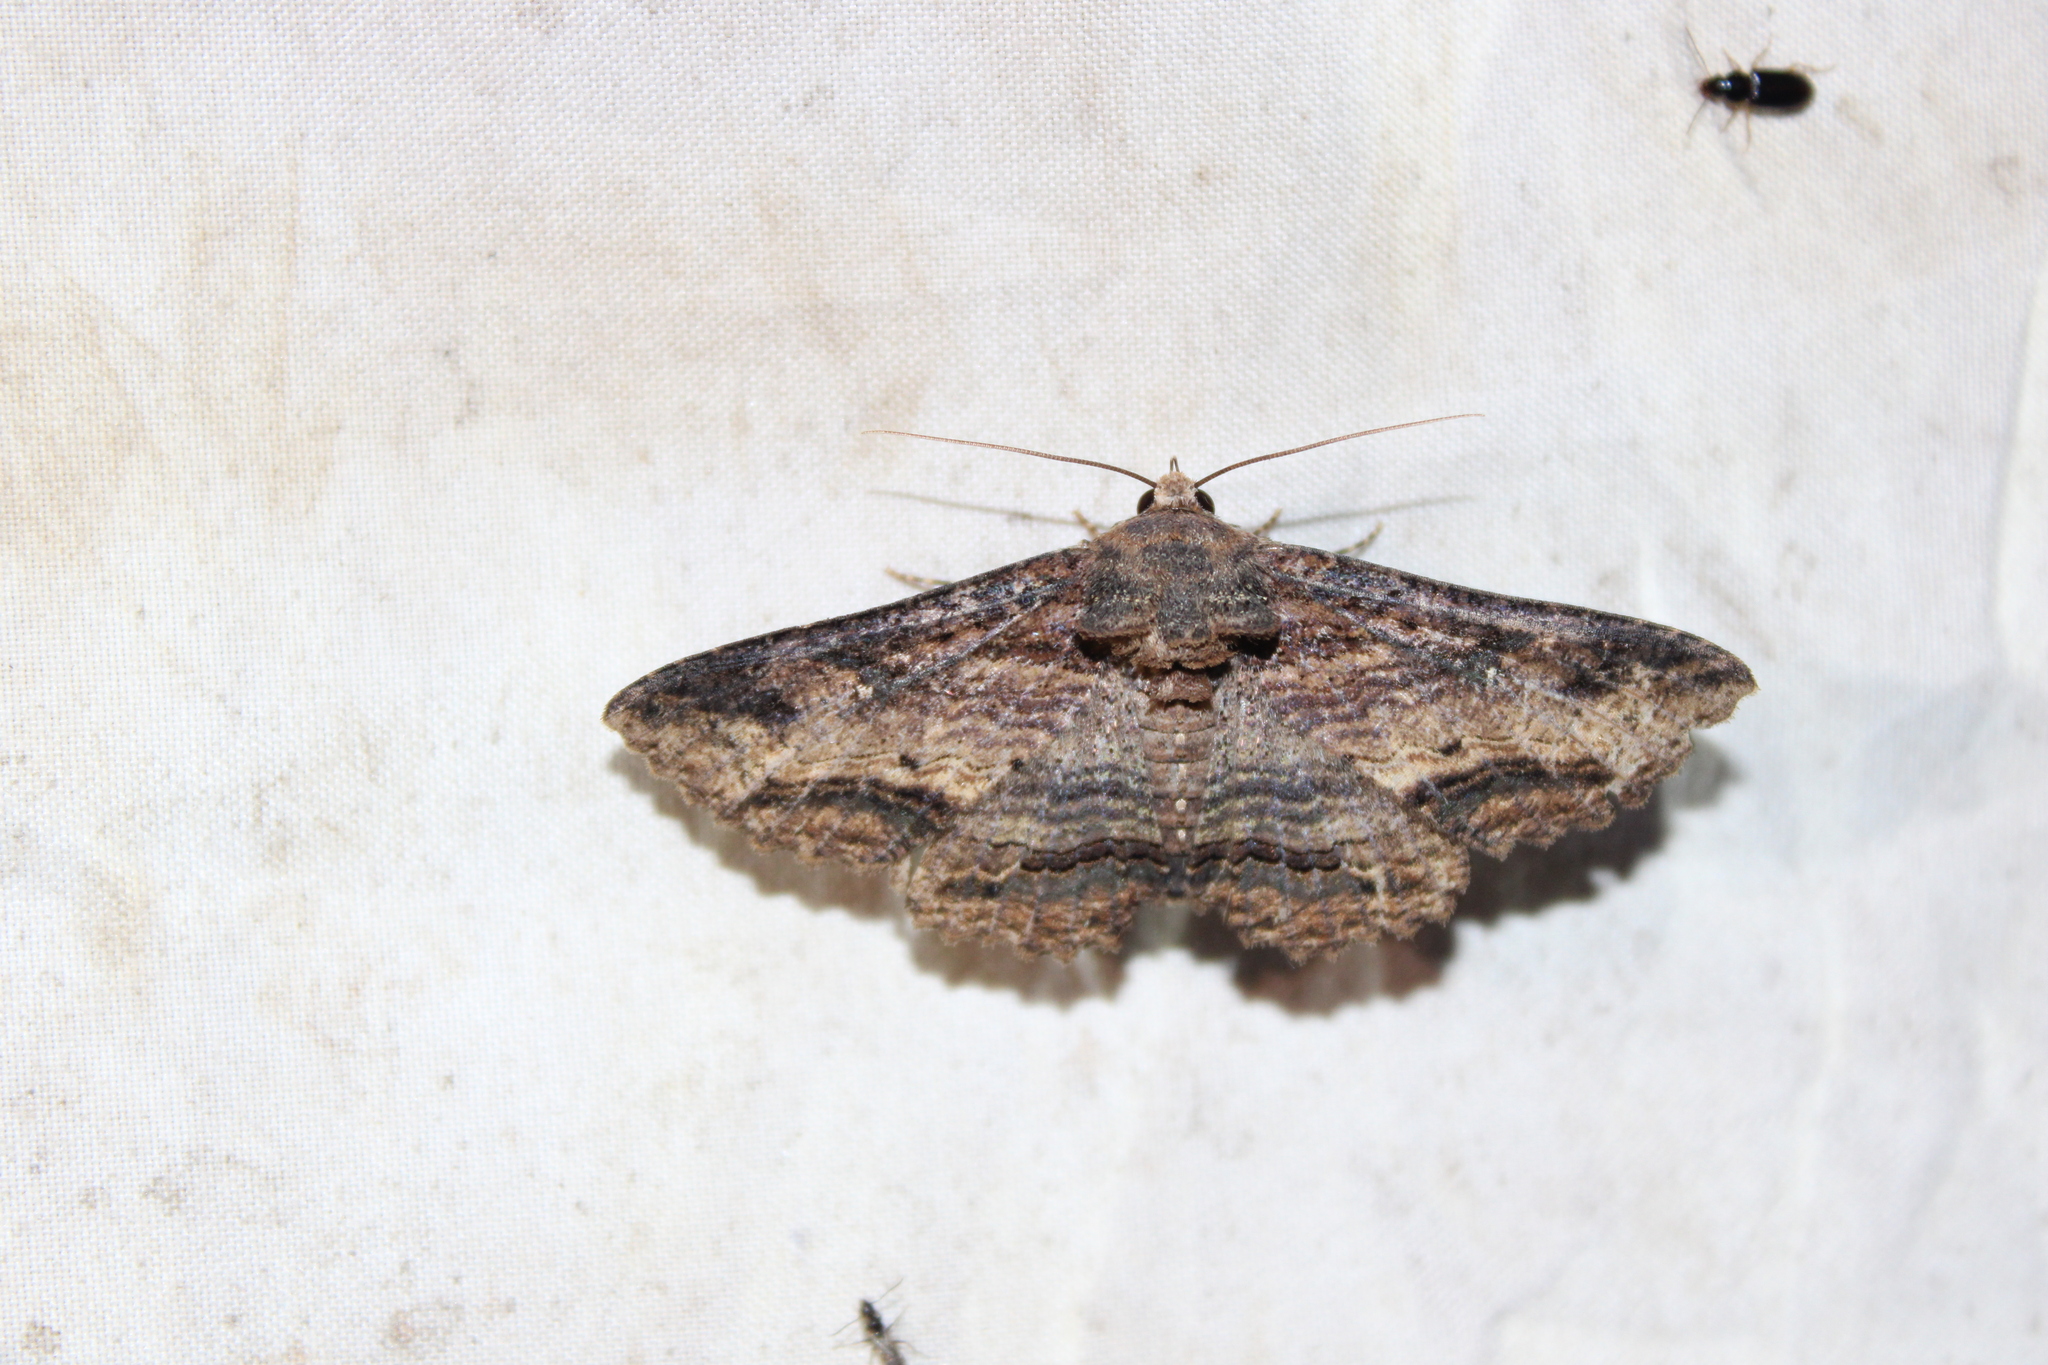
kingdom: Animalia
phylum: Arthropoda
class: Insecta
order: Lepidoptera
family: Erebidae
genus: Zale
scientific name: Zale lunata
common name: Lunate zale moth
